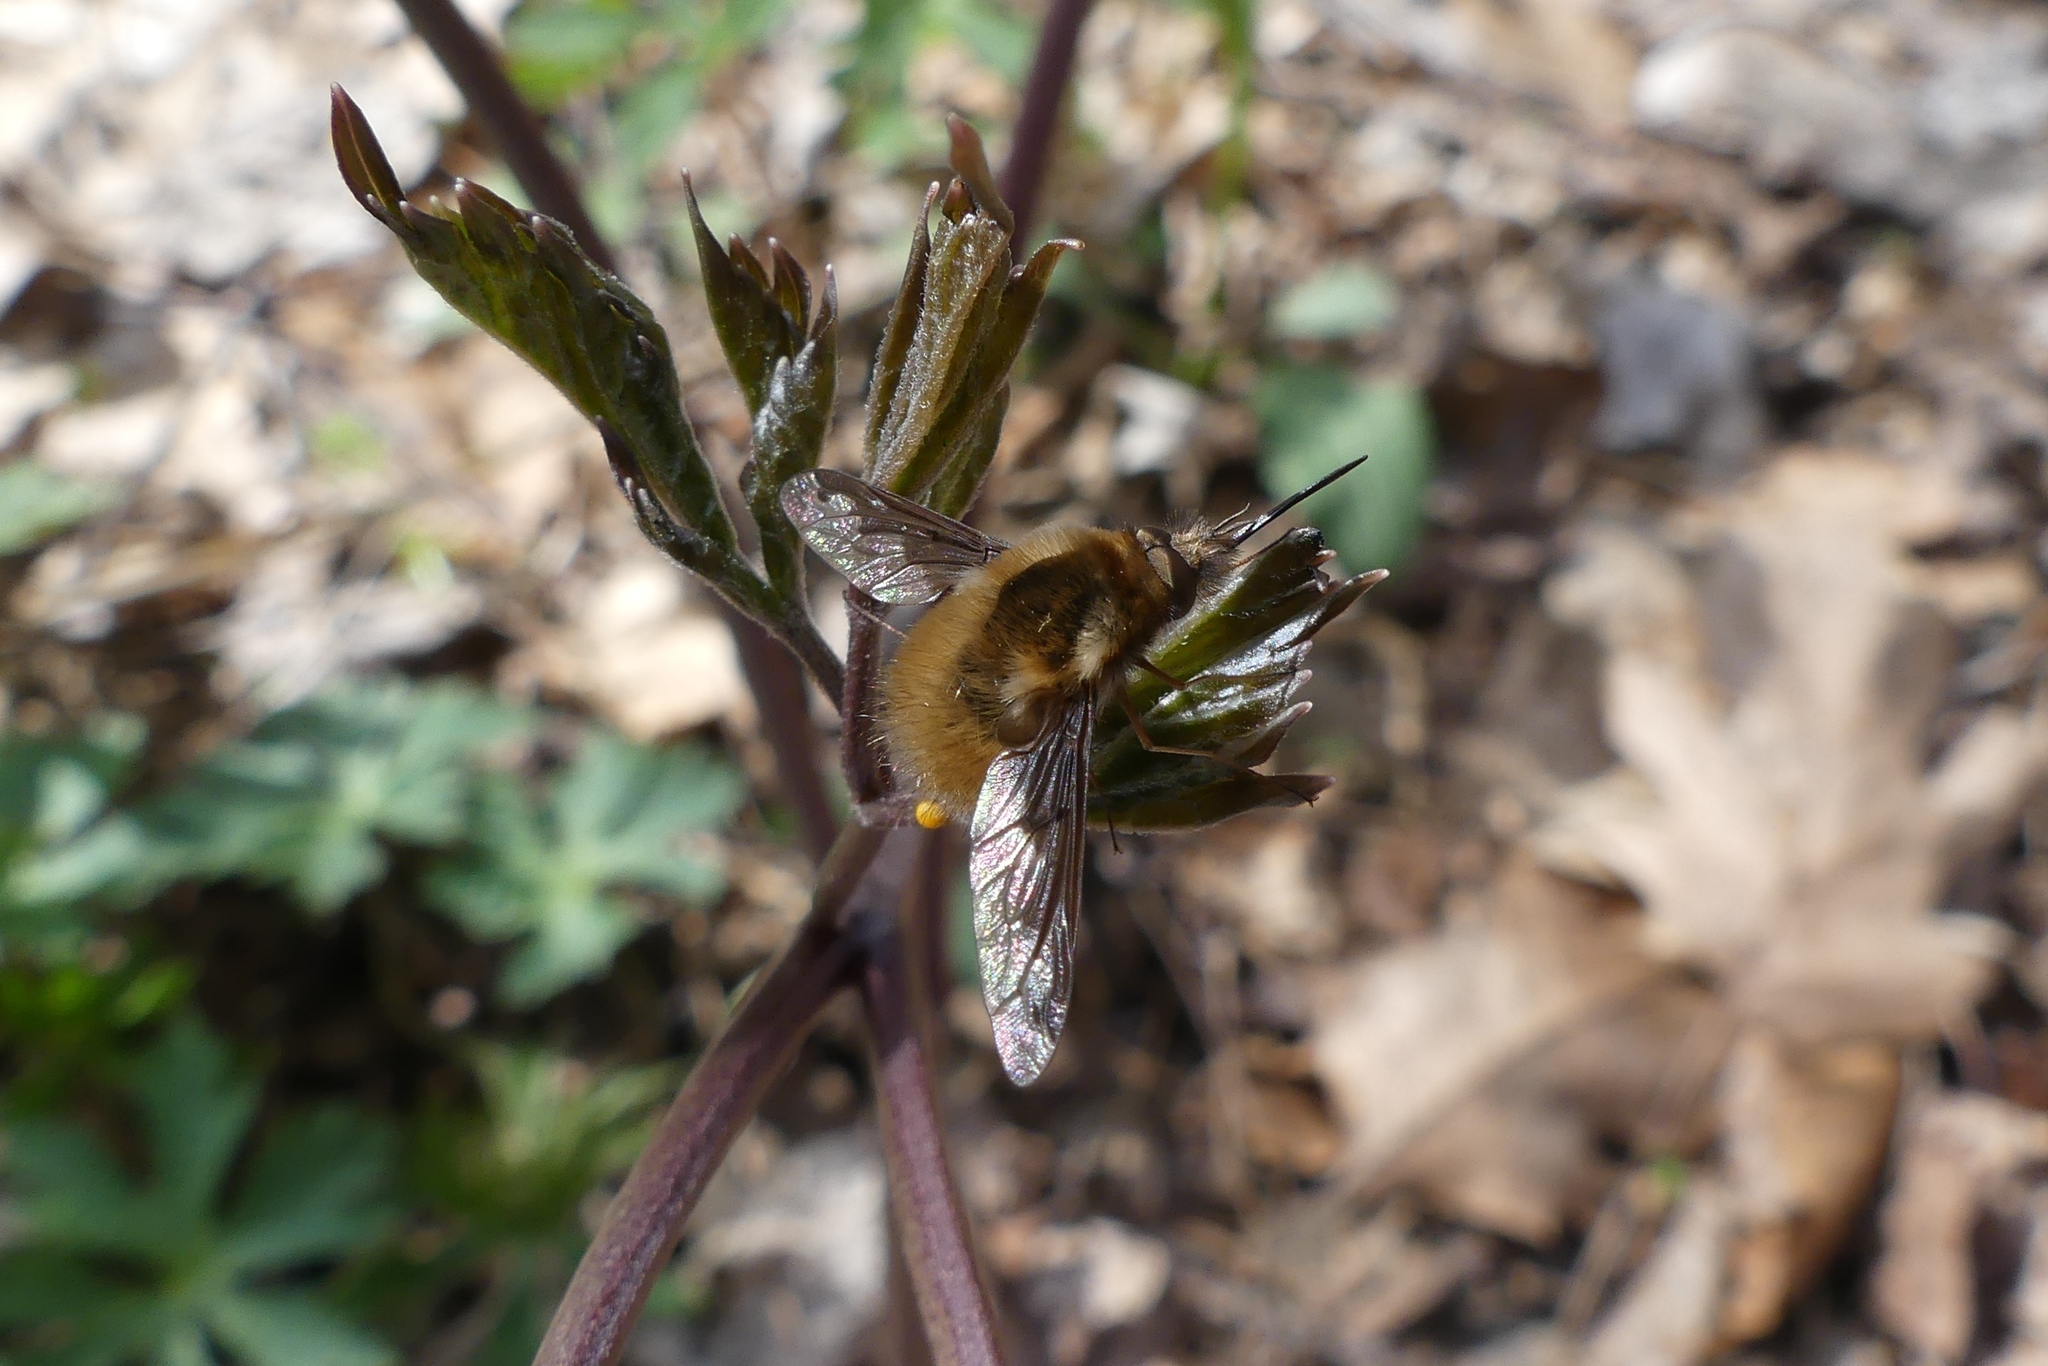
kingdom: Animalia
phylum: Arthropoda
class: Insecta
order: Diptera
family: Bombyliidae
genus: Bombylius
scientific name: Bombylius major
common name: Bee fly
